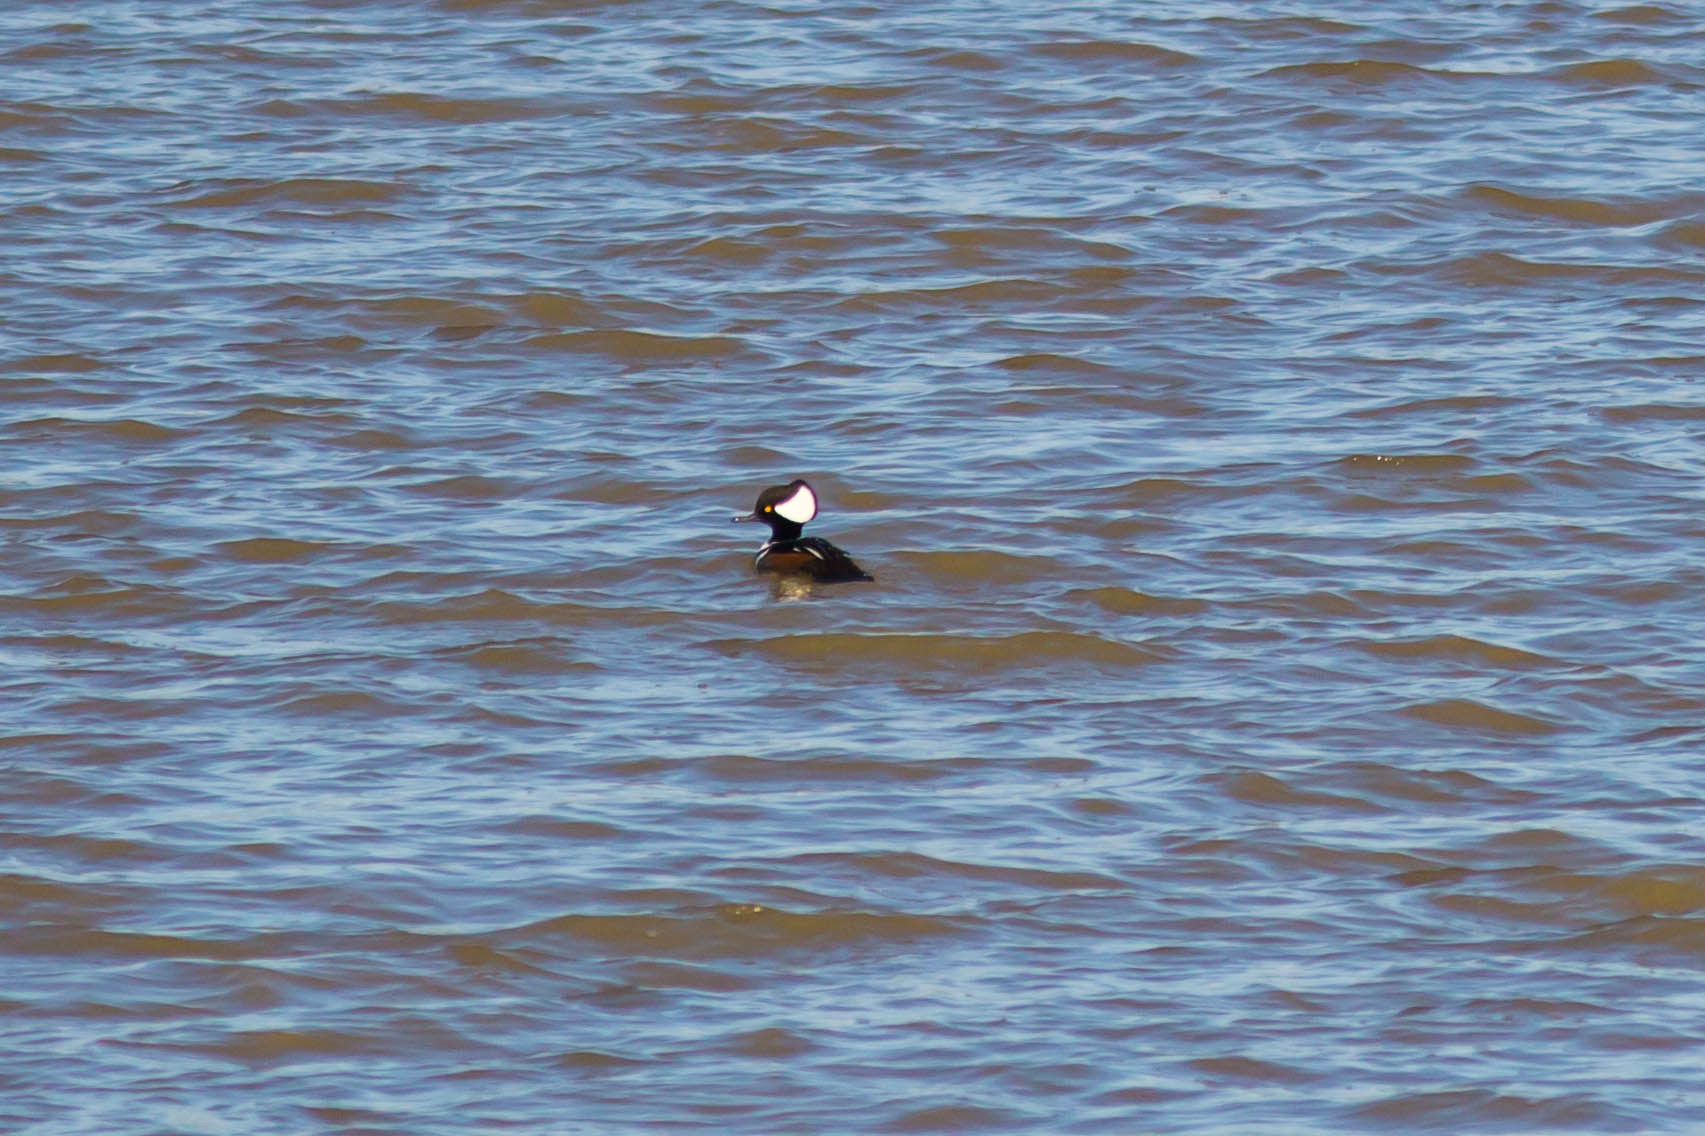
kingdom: Animalia
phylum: Chordata
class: Aves
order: Anseriformes
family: Anatidae
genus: Lophodytes
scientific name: Lophodytes cucullatus
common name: Hooded merganser
